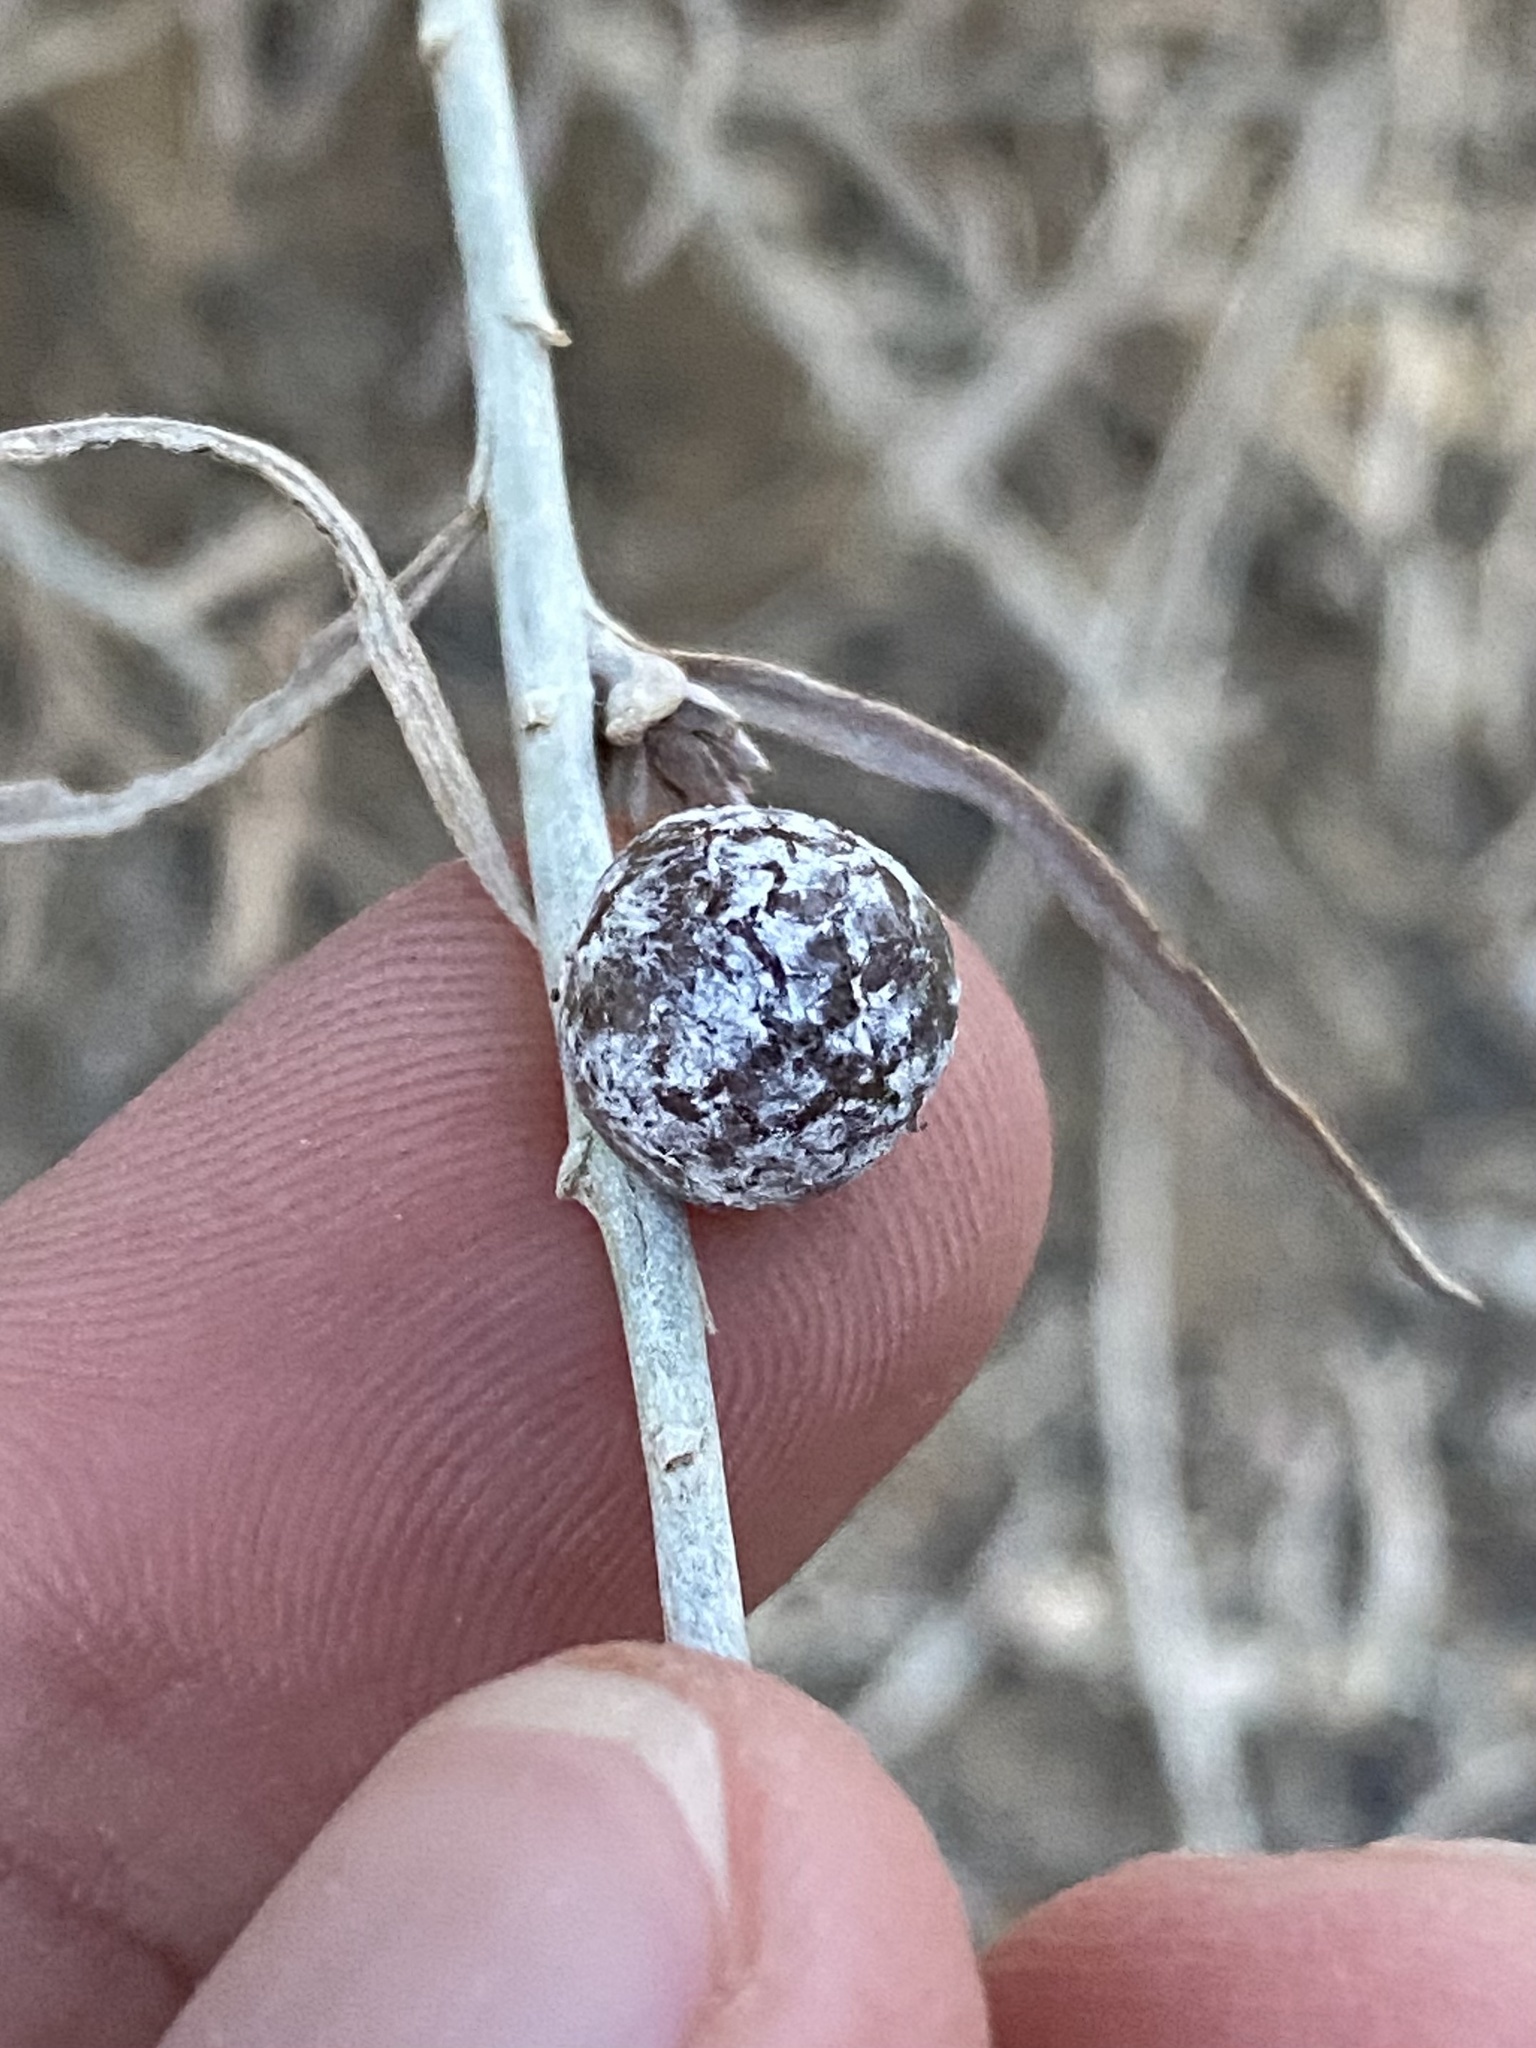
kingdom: Animalia
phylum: Arthropoda
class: Insecta
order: Diptera
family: Tephritidae
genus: Aciurina
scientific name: Aciurina trixa
